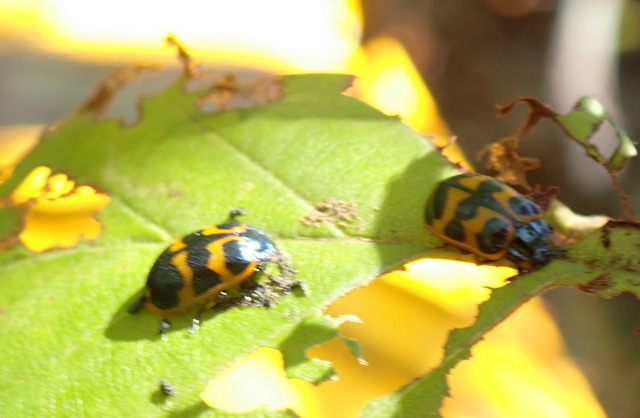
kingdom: Animalia
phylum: Arthropoda
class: Insecta
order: Coleoptera
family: Chrysomelidae
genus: Chrysomela
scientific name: Chrysomela interrupta
